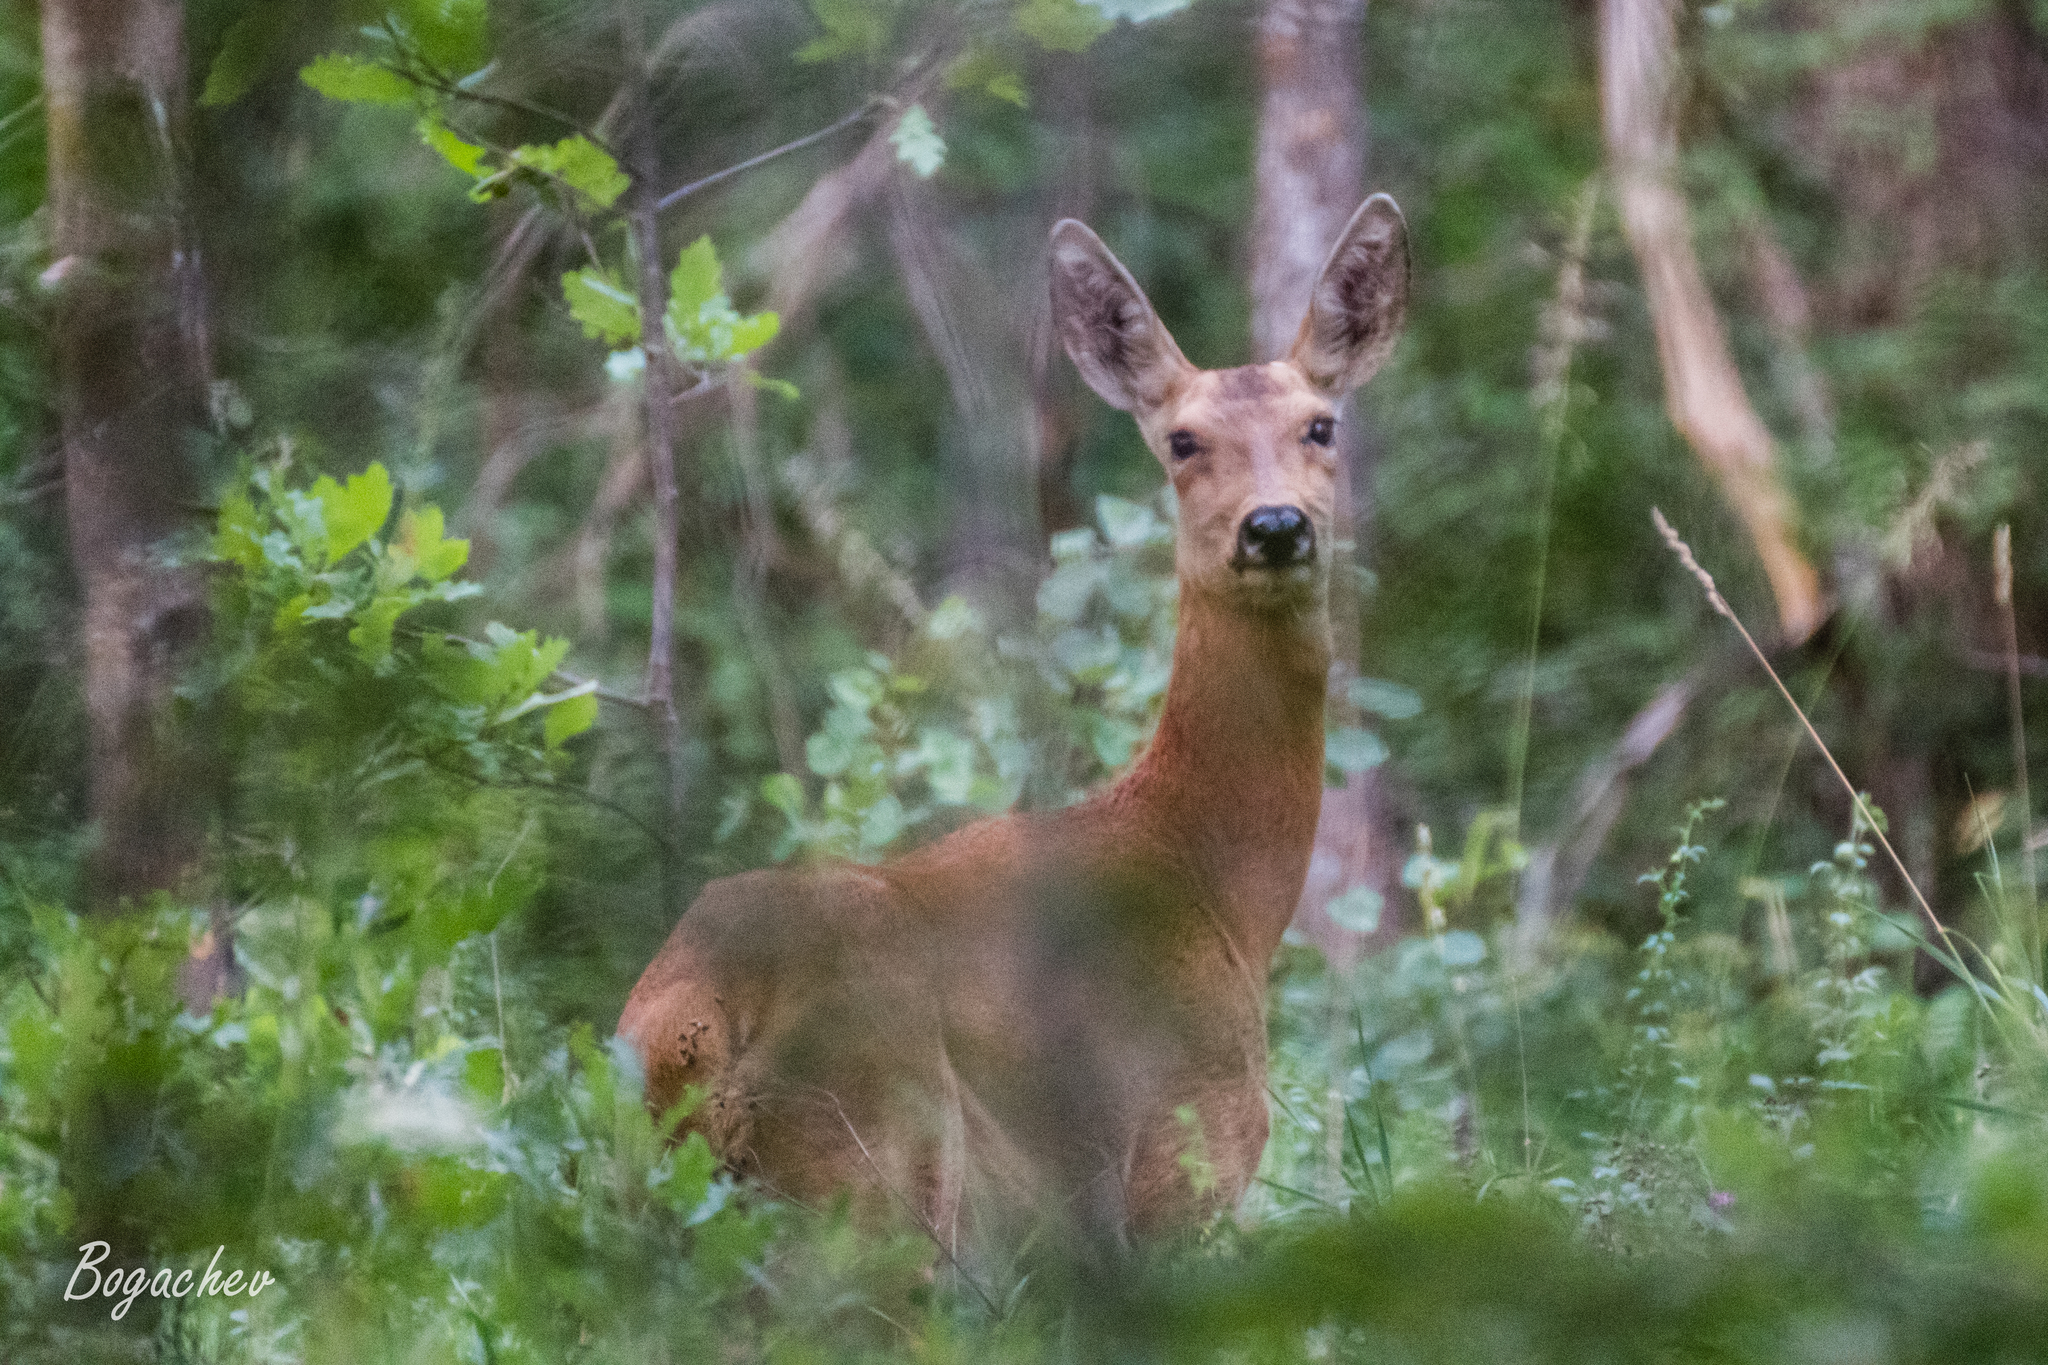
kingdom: Animalia
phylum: Chordata
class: Mammalia
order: Artiodactyla
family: Cervidae
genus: Capreolus
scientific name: Capreolus pygargus
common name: Siberian roe
